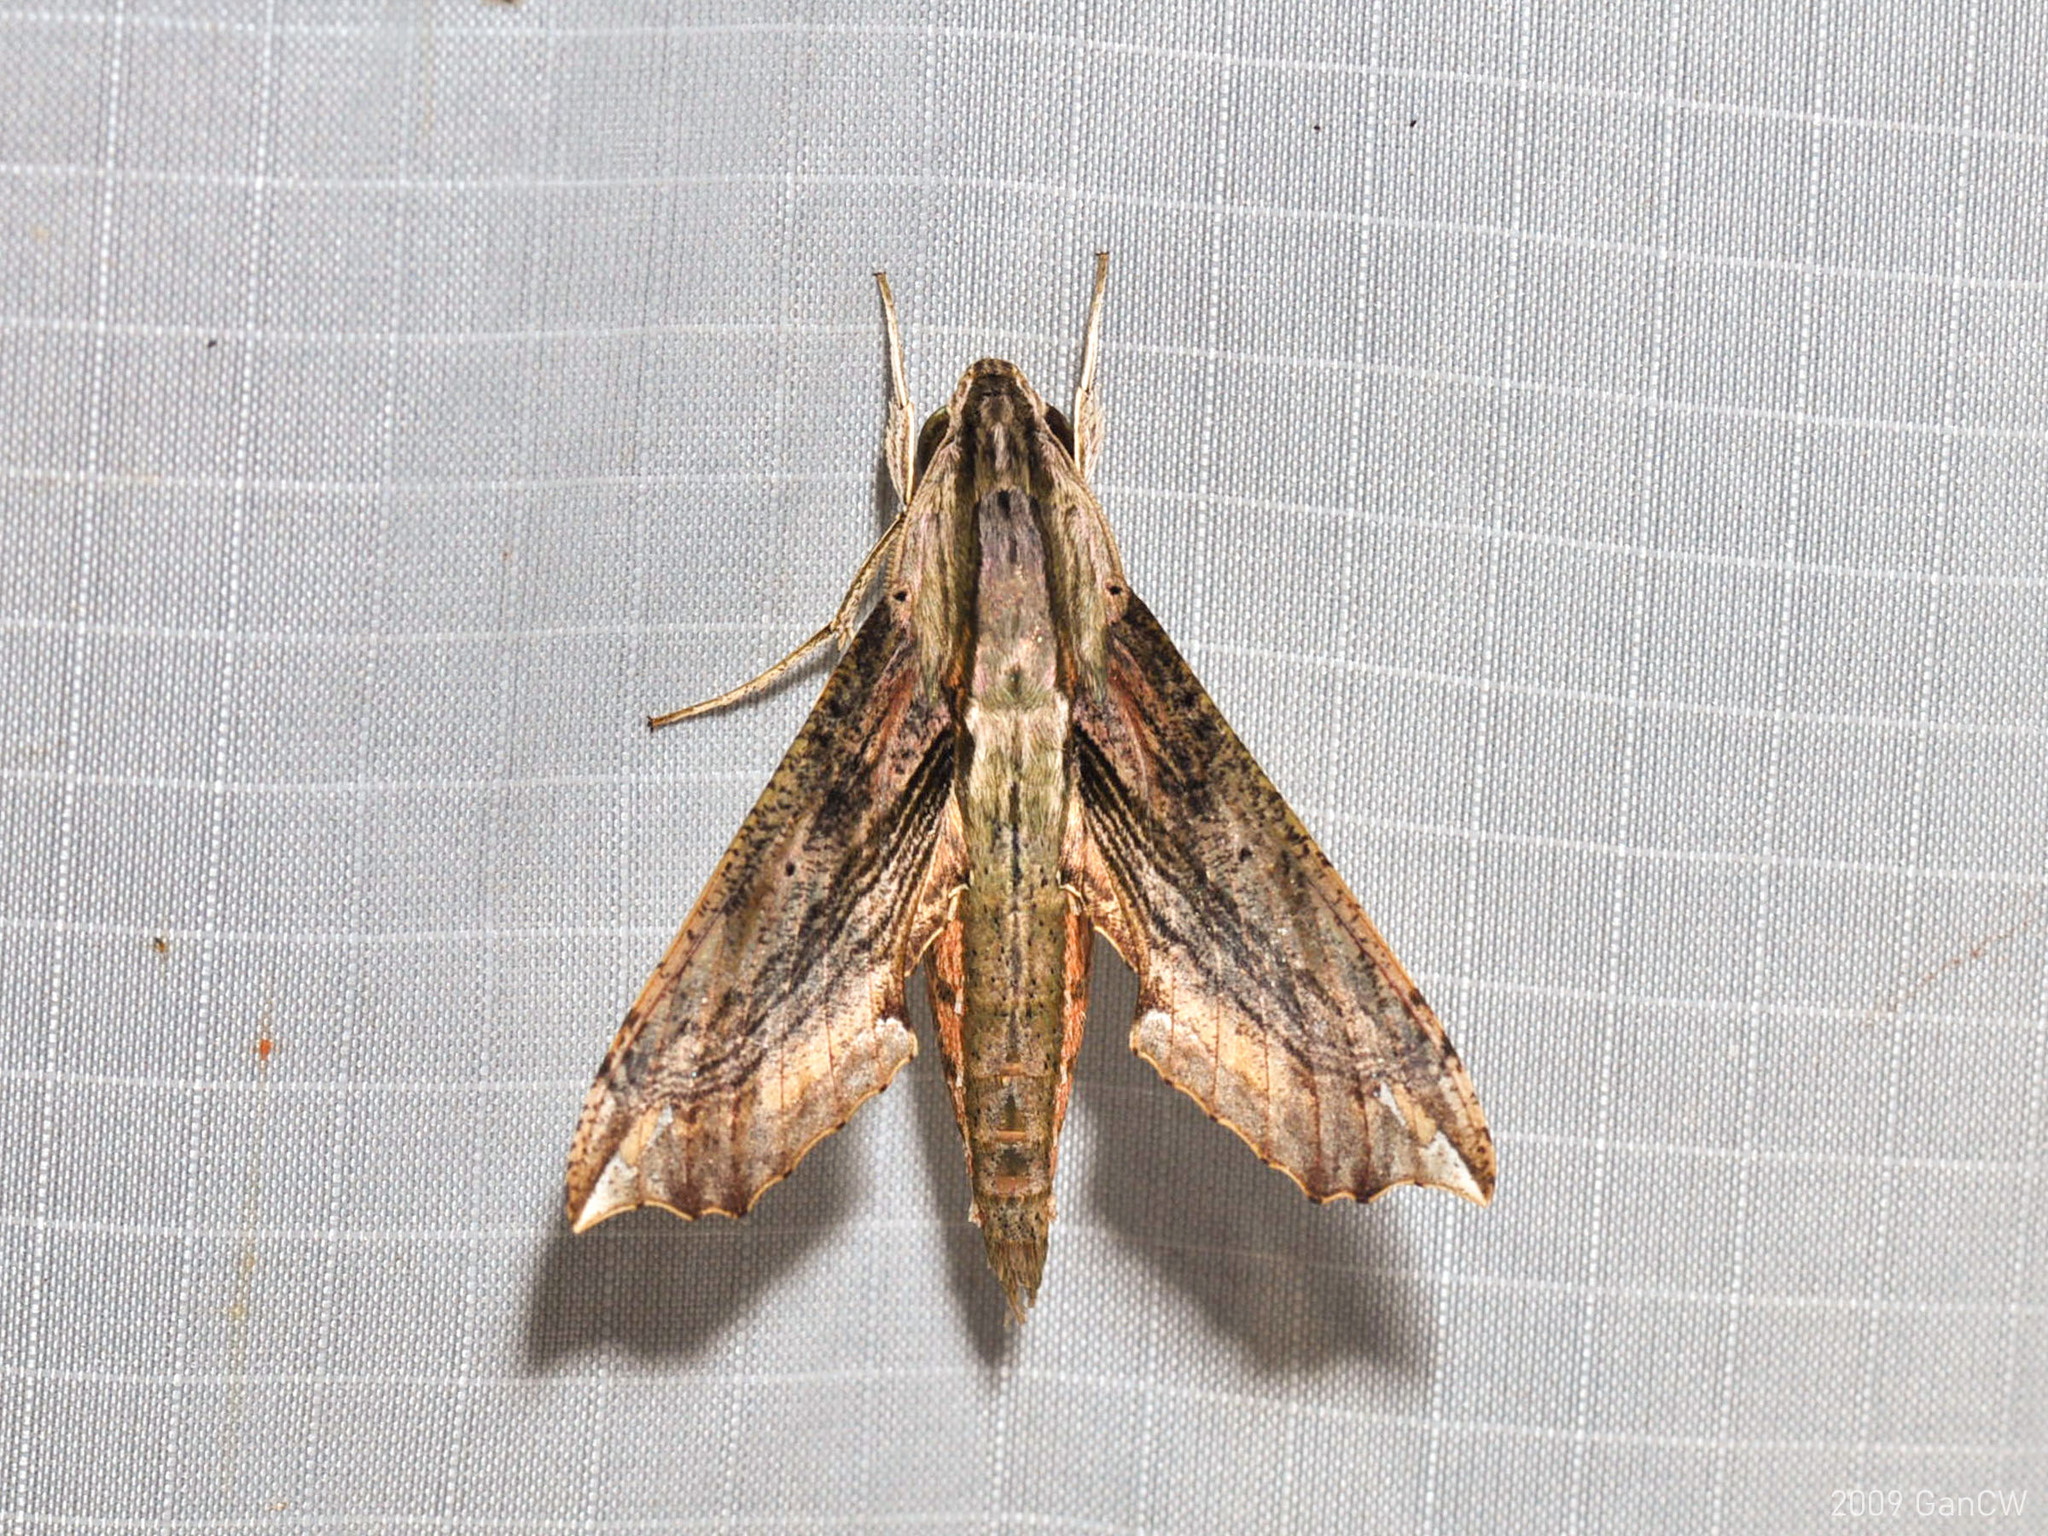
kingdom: Animalia
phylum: Arthropoda
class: Insecta
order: Lepidoptera
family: Sphingidae
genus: Eupanacra
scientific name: Eupanacra regularis
